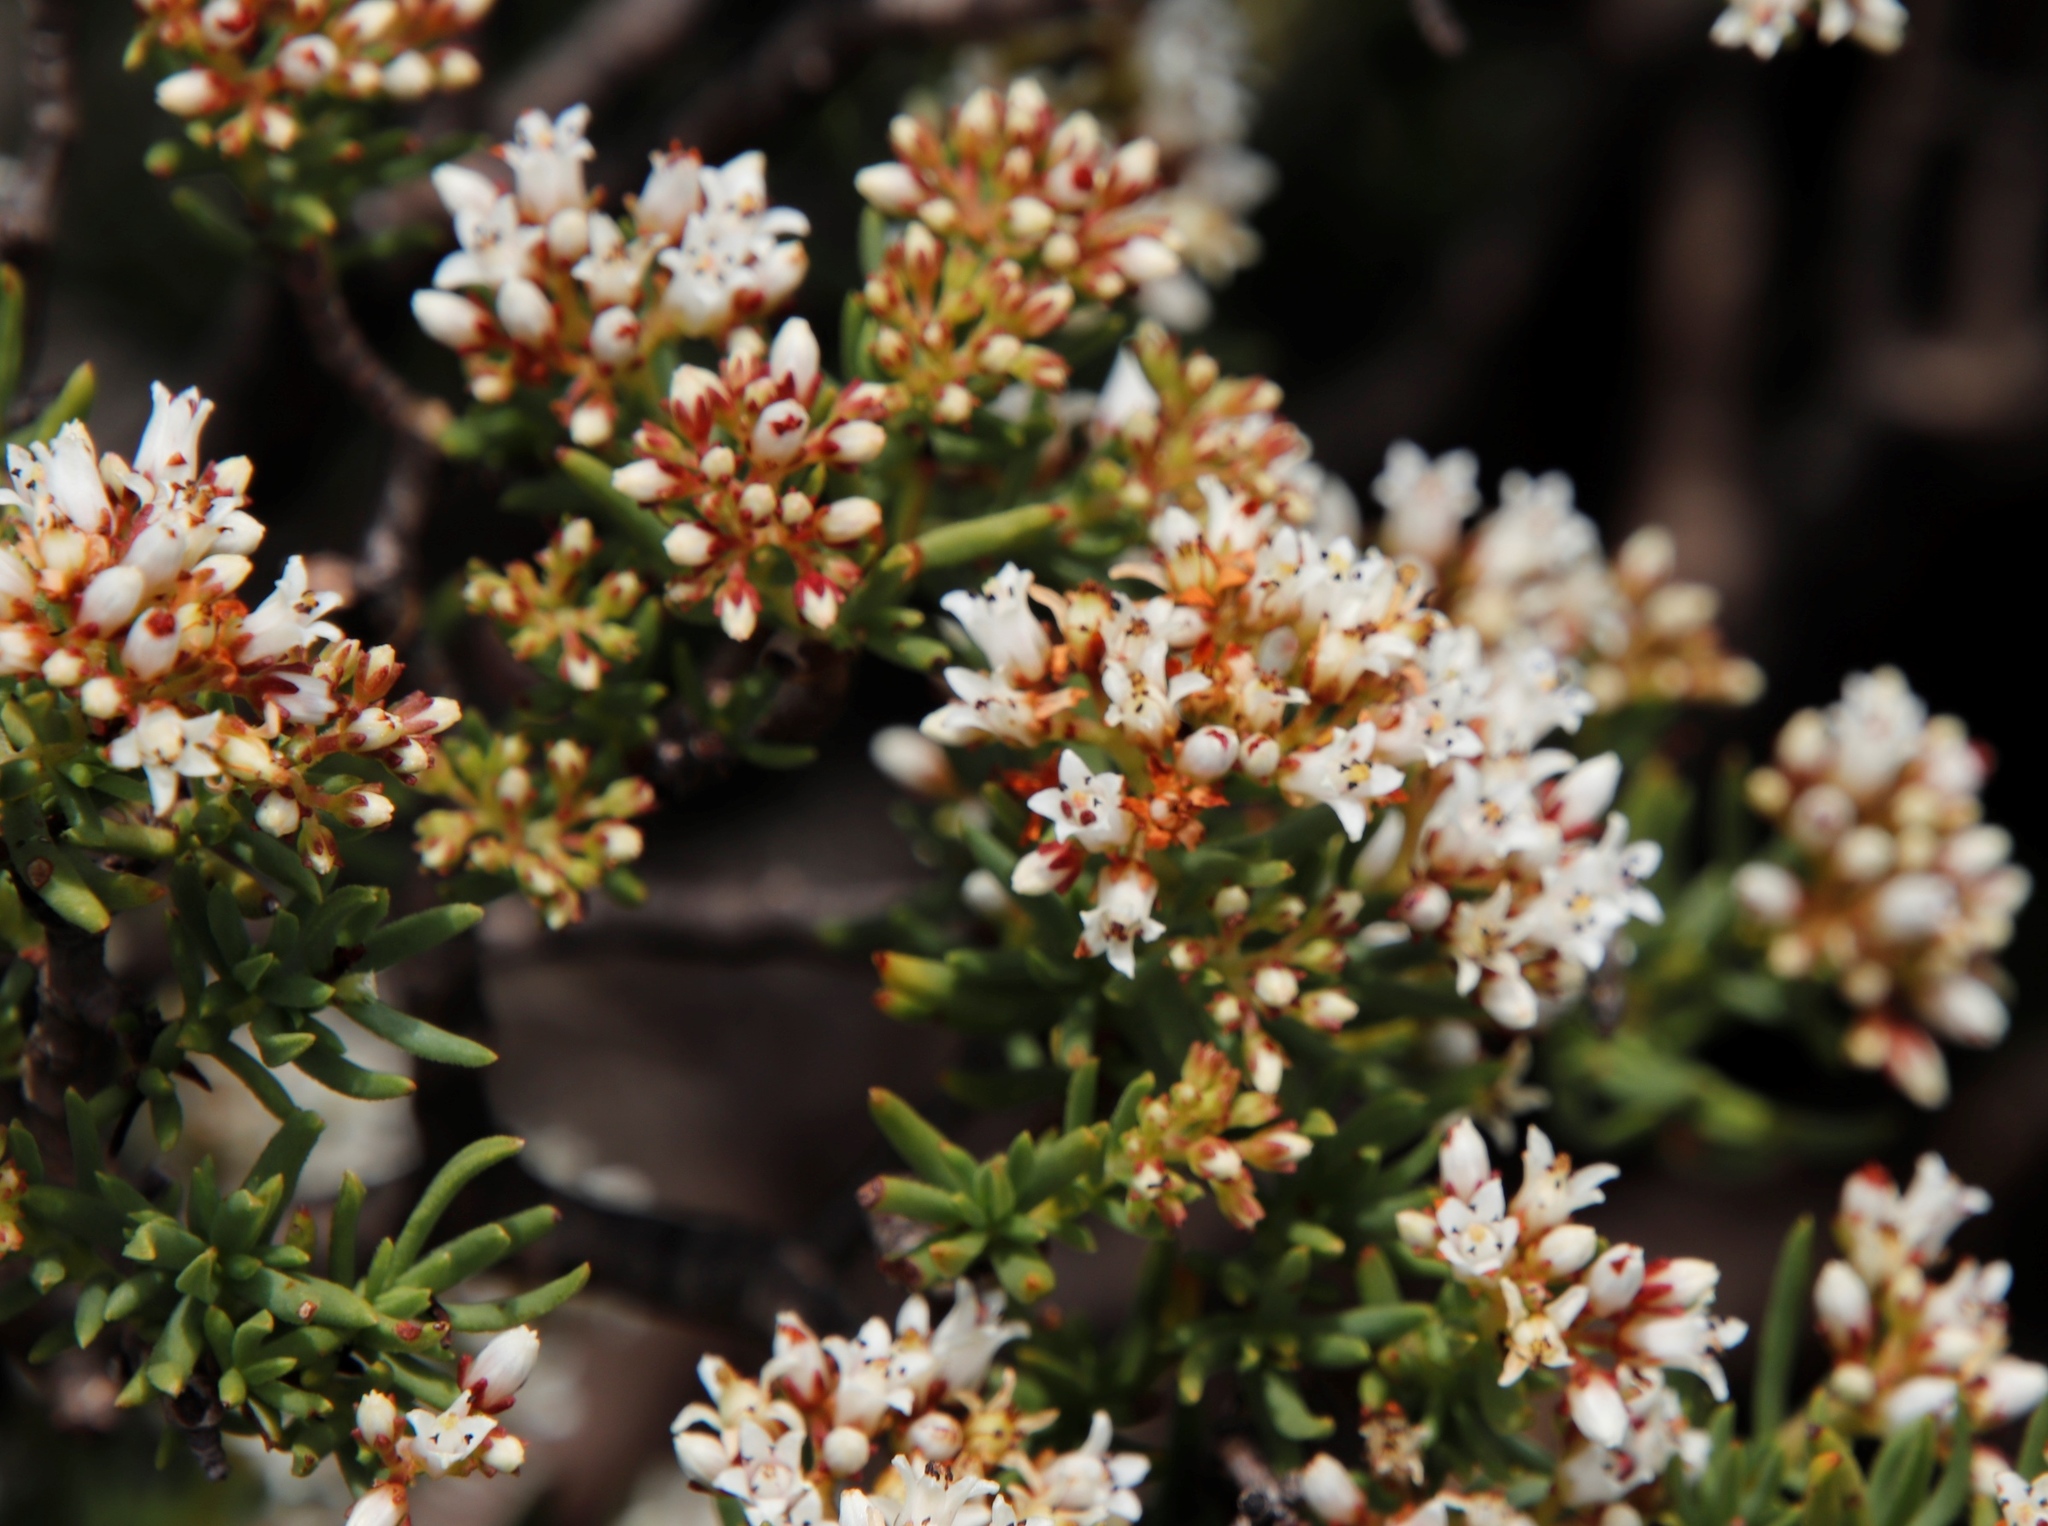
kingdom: Plantae
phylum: Tracheophyta
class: Magnoliopsida
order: Saxifragales
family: Crassulaceae
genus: Crassula
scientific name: Crassula sarcocaulis
